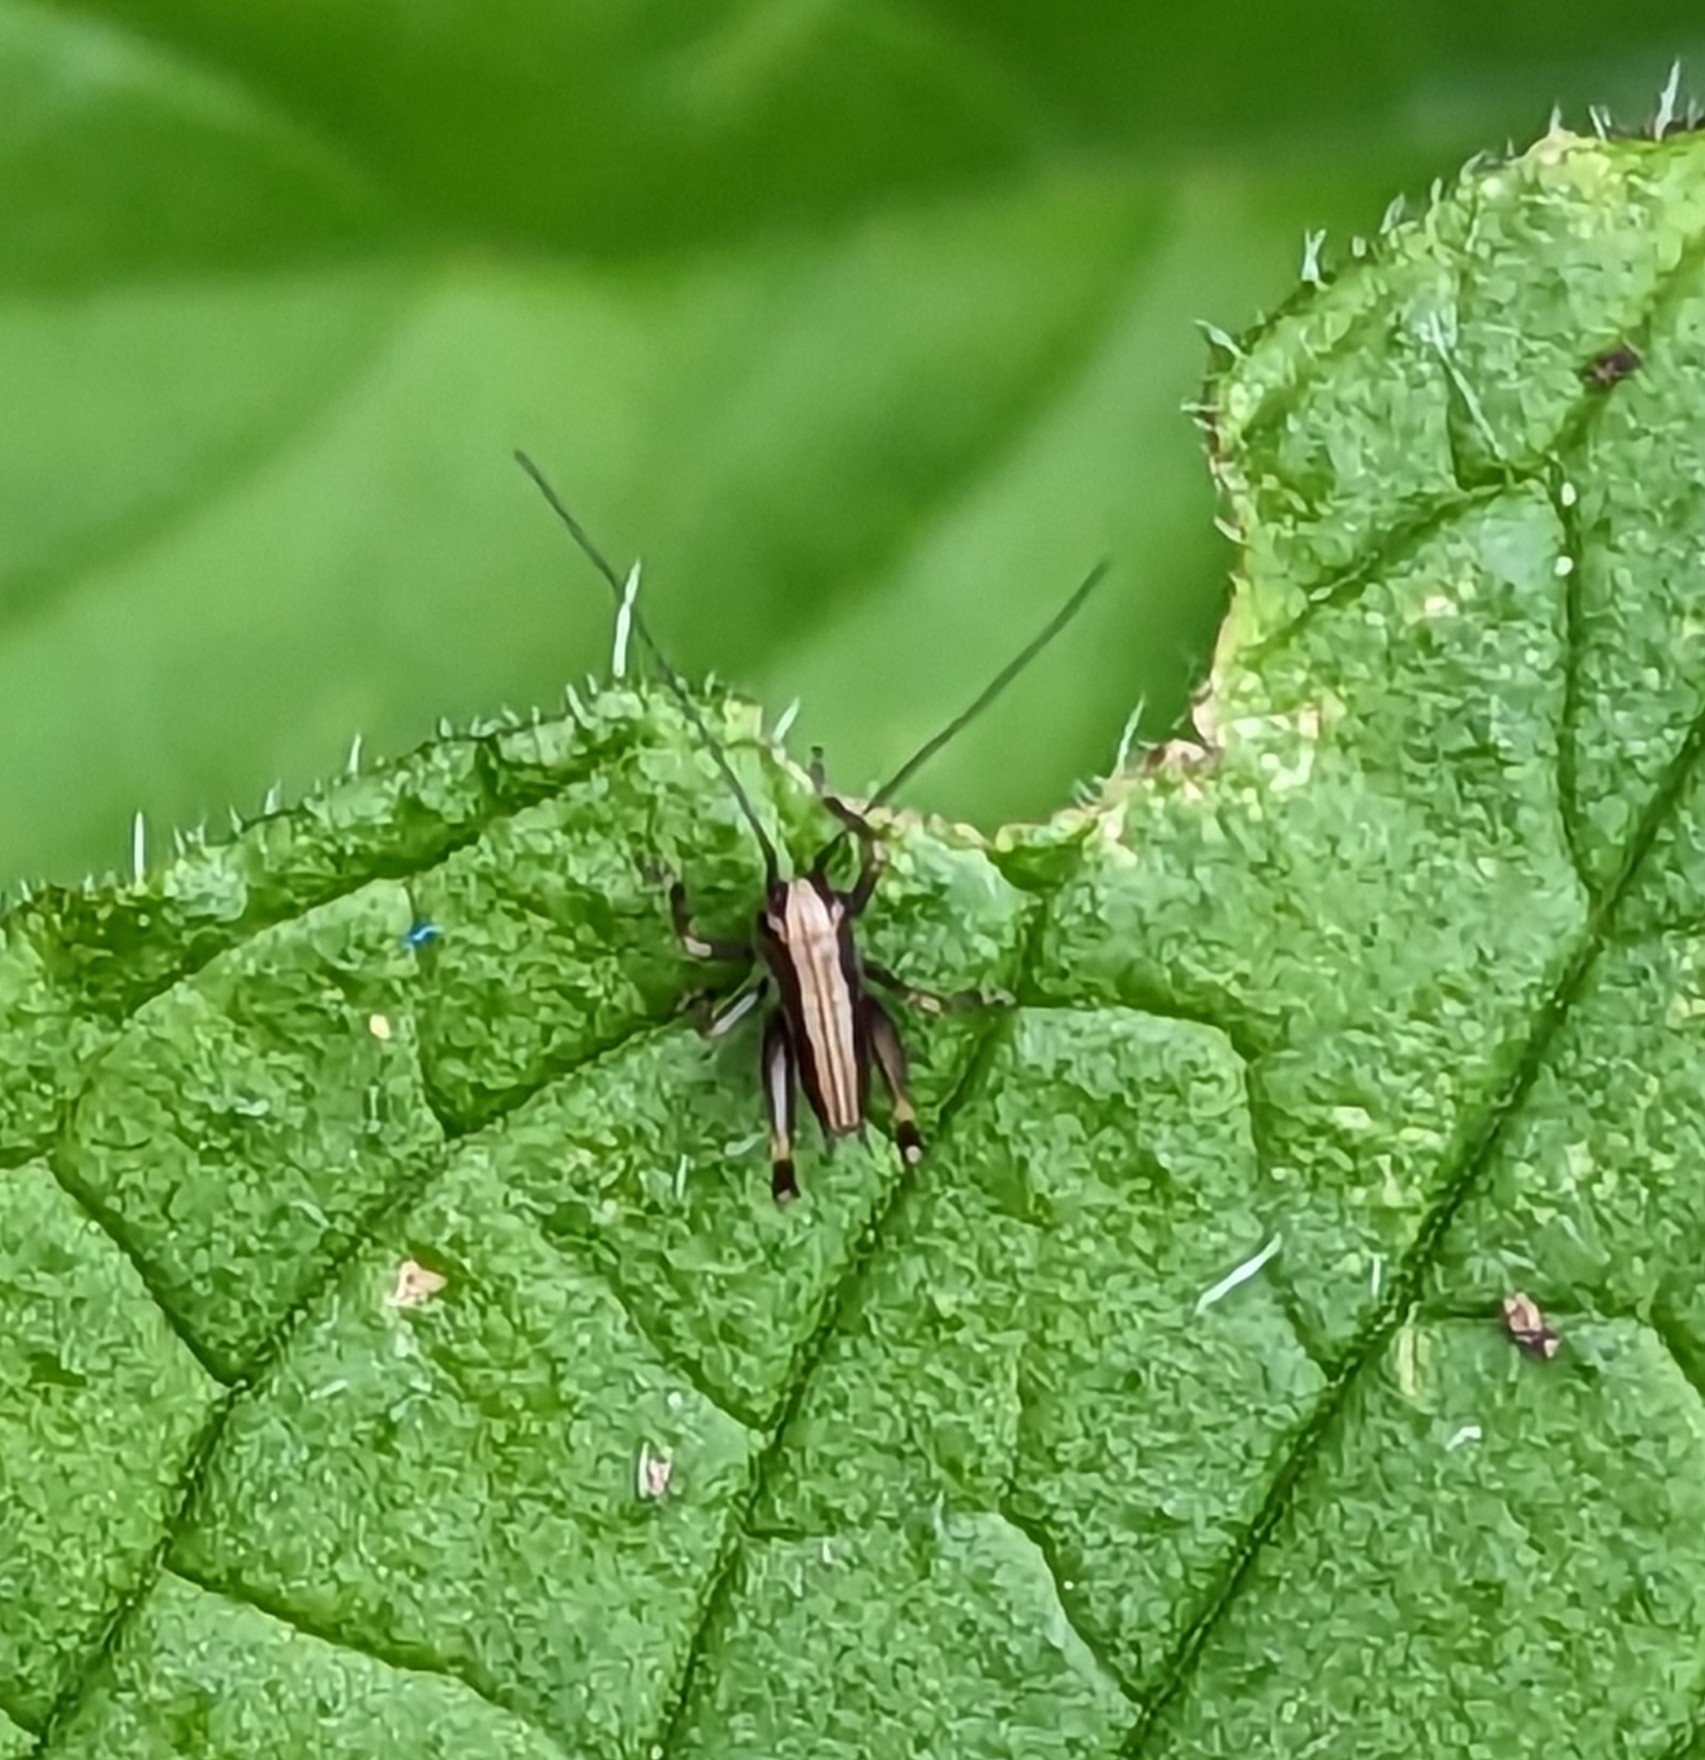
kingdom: Animalia
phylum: Arthropoda
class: Insecta
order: Orthoptera
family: Tettigoniidae
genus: Pholidoptera
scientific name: Pholidoptera griseoaptera
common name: Dark bush-cricket
